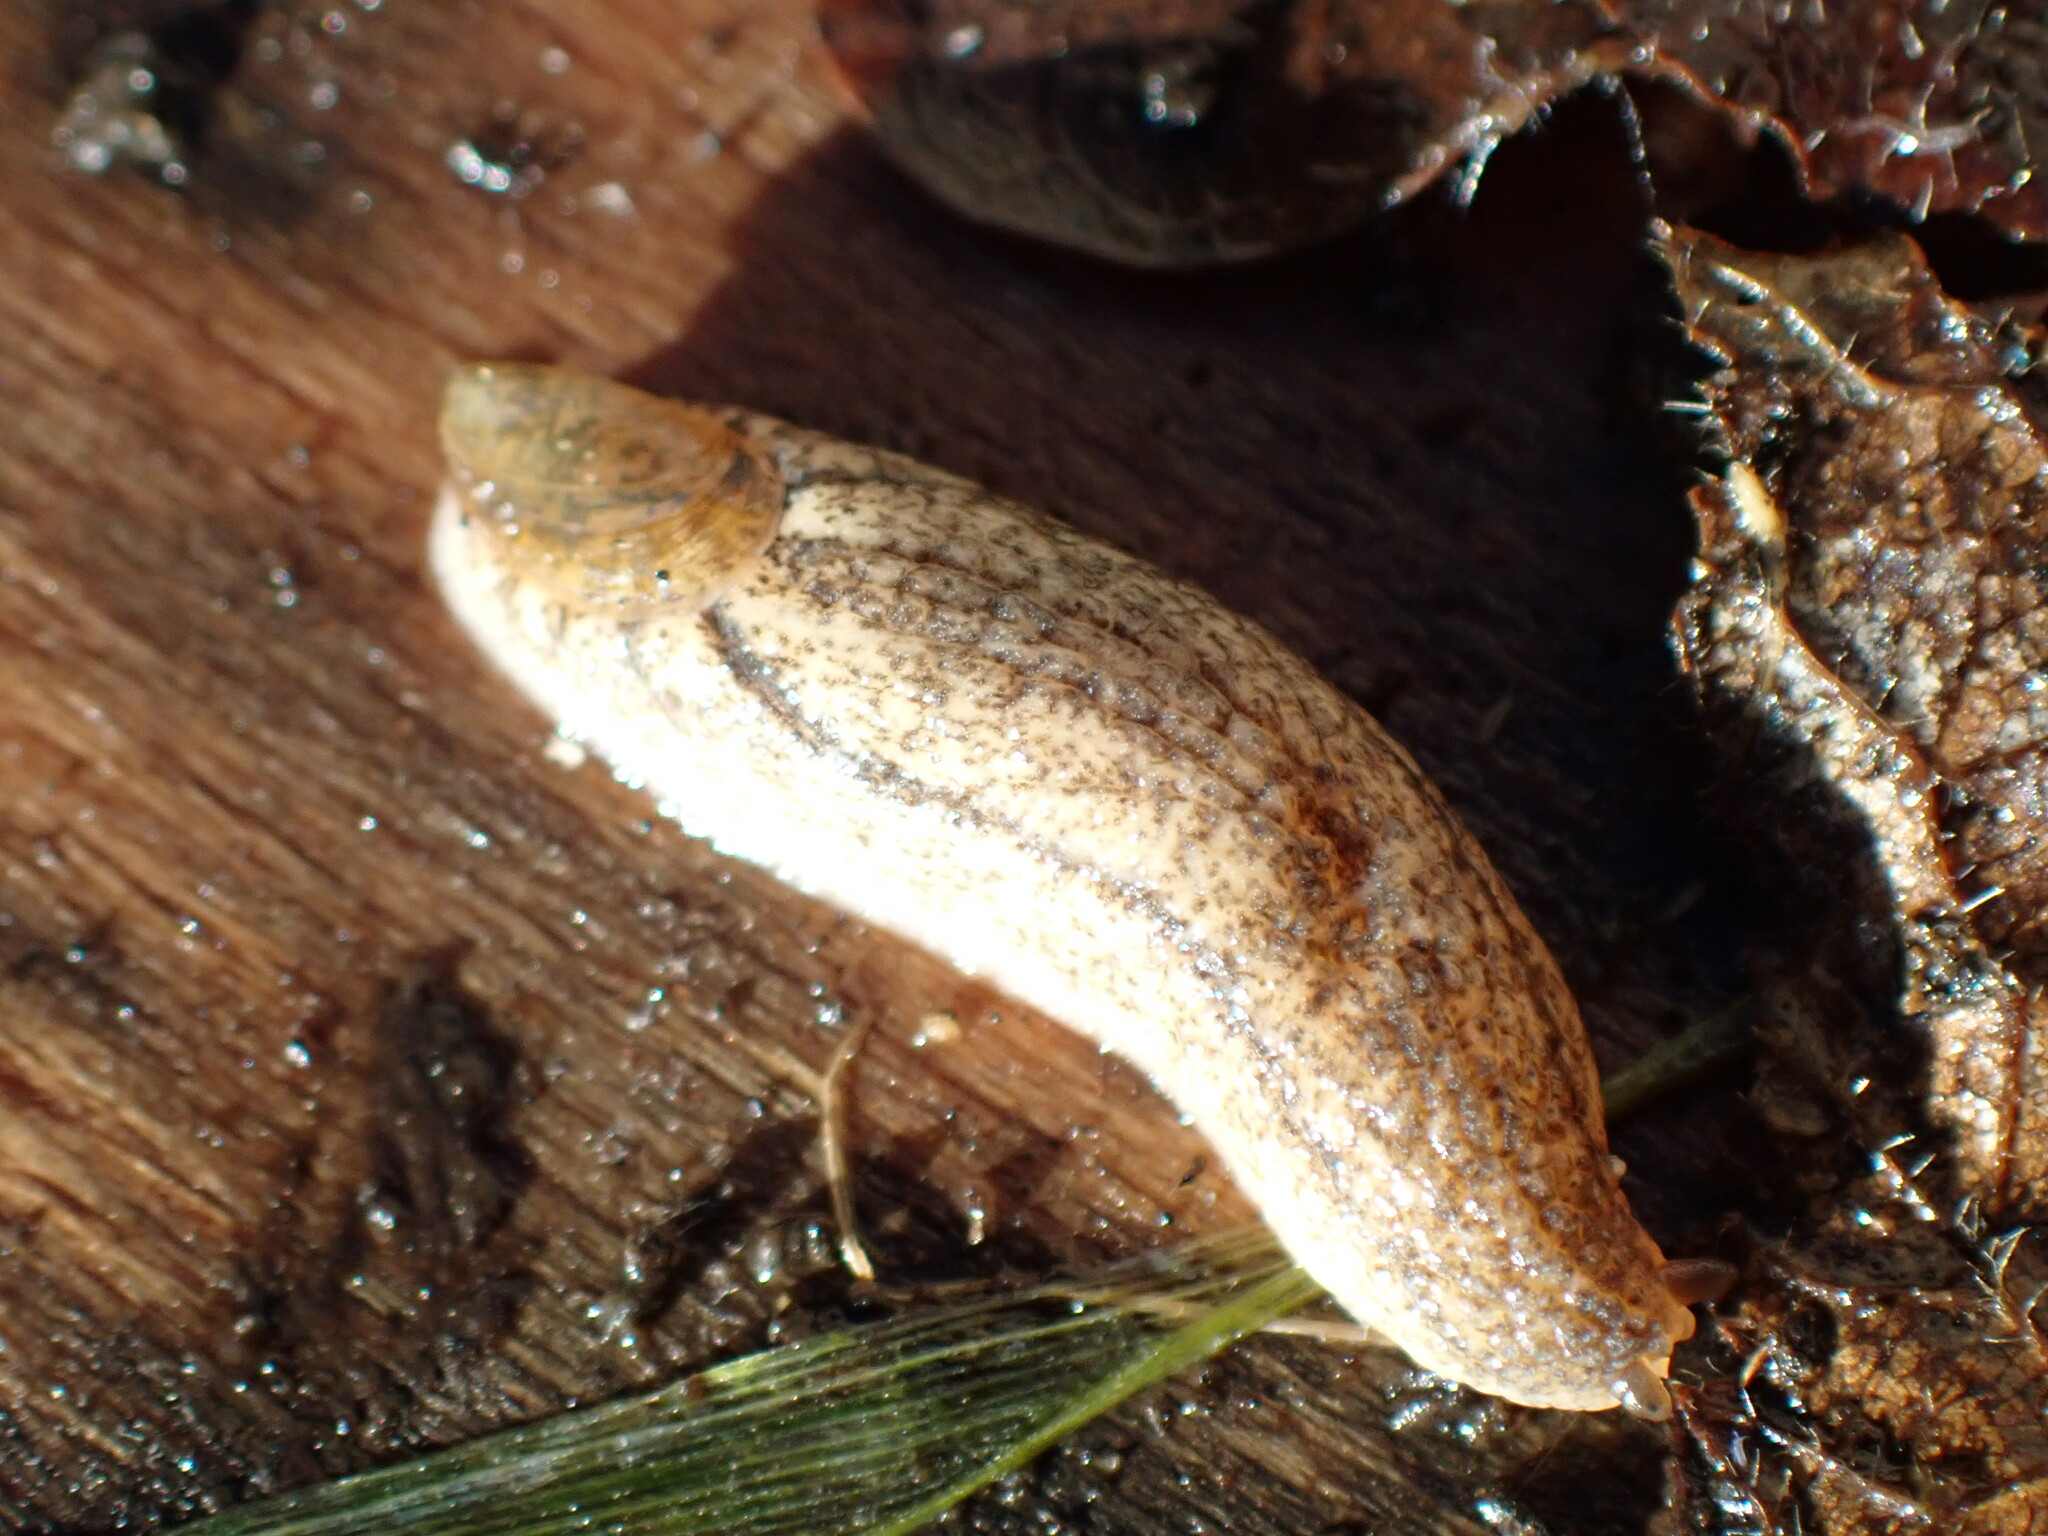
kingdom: Animalia
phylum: Mollusca
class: Gastropoda
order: Stylommatophora
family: Testacellidae
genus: Testacella
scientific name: Testacella maugei
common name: Mauge's slug
